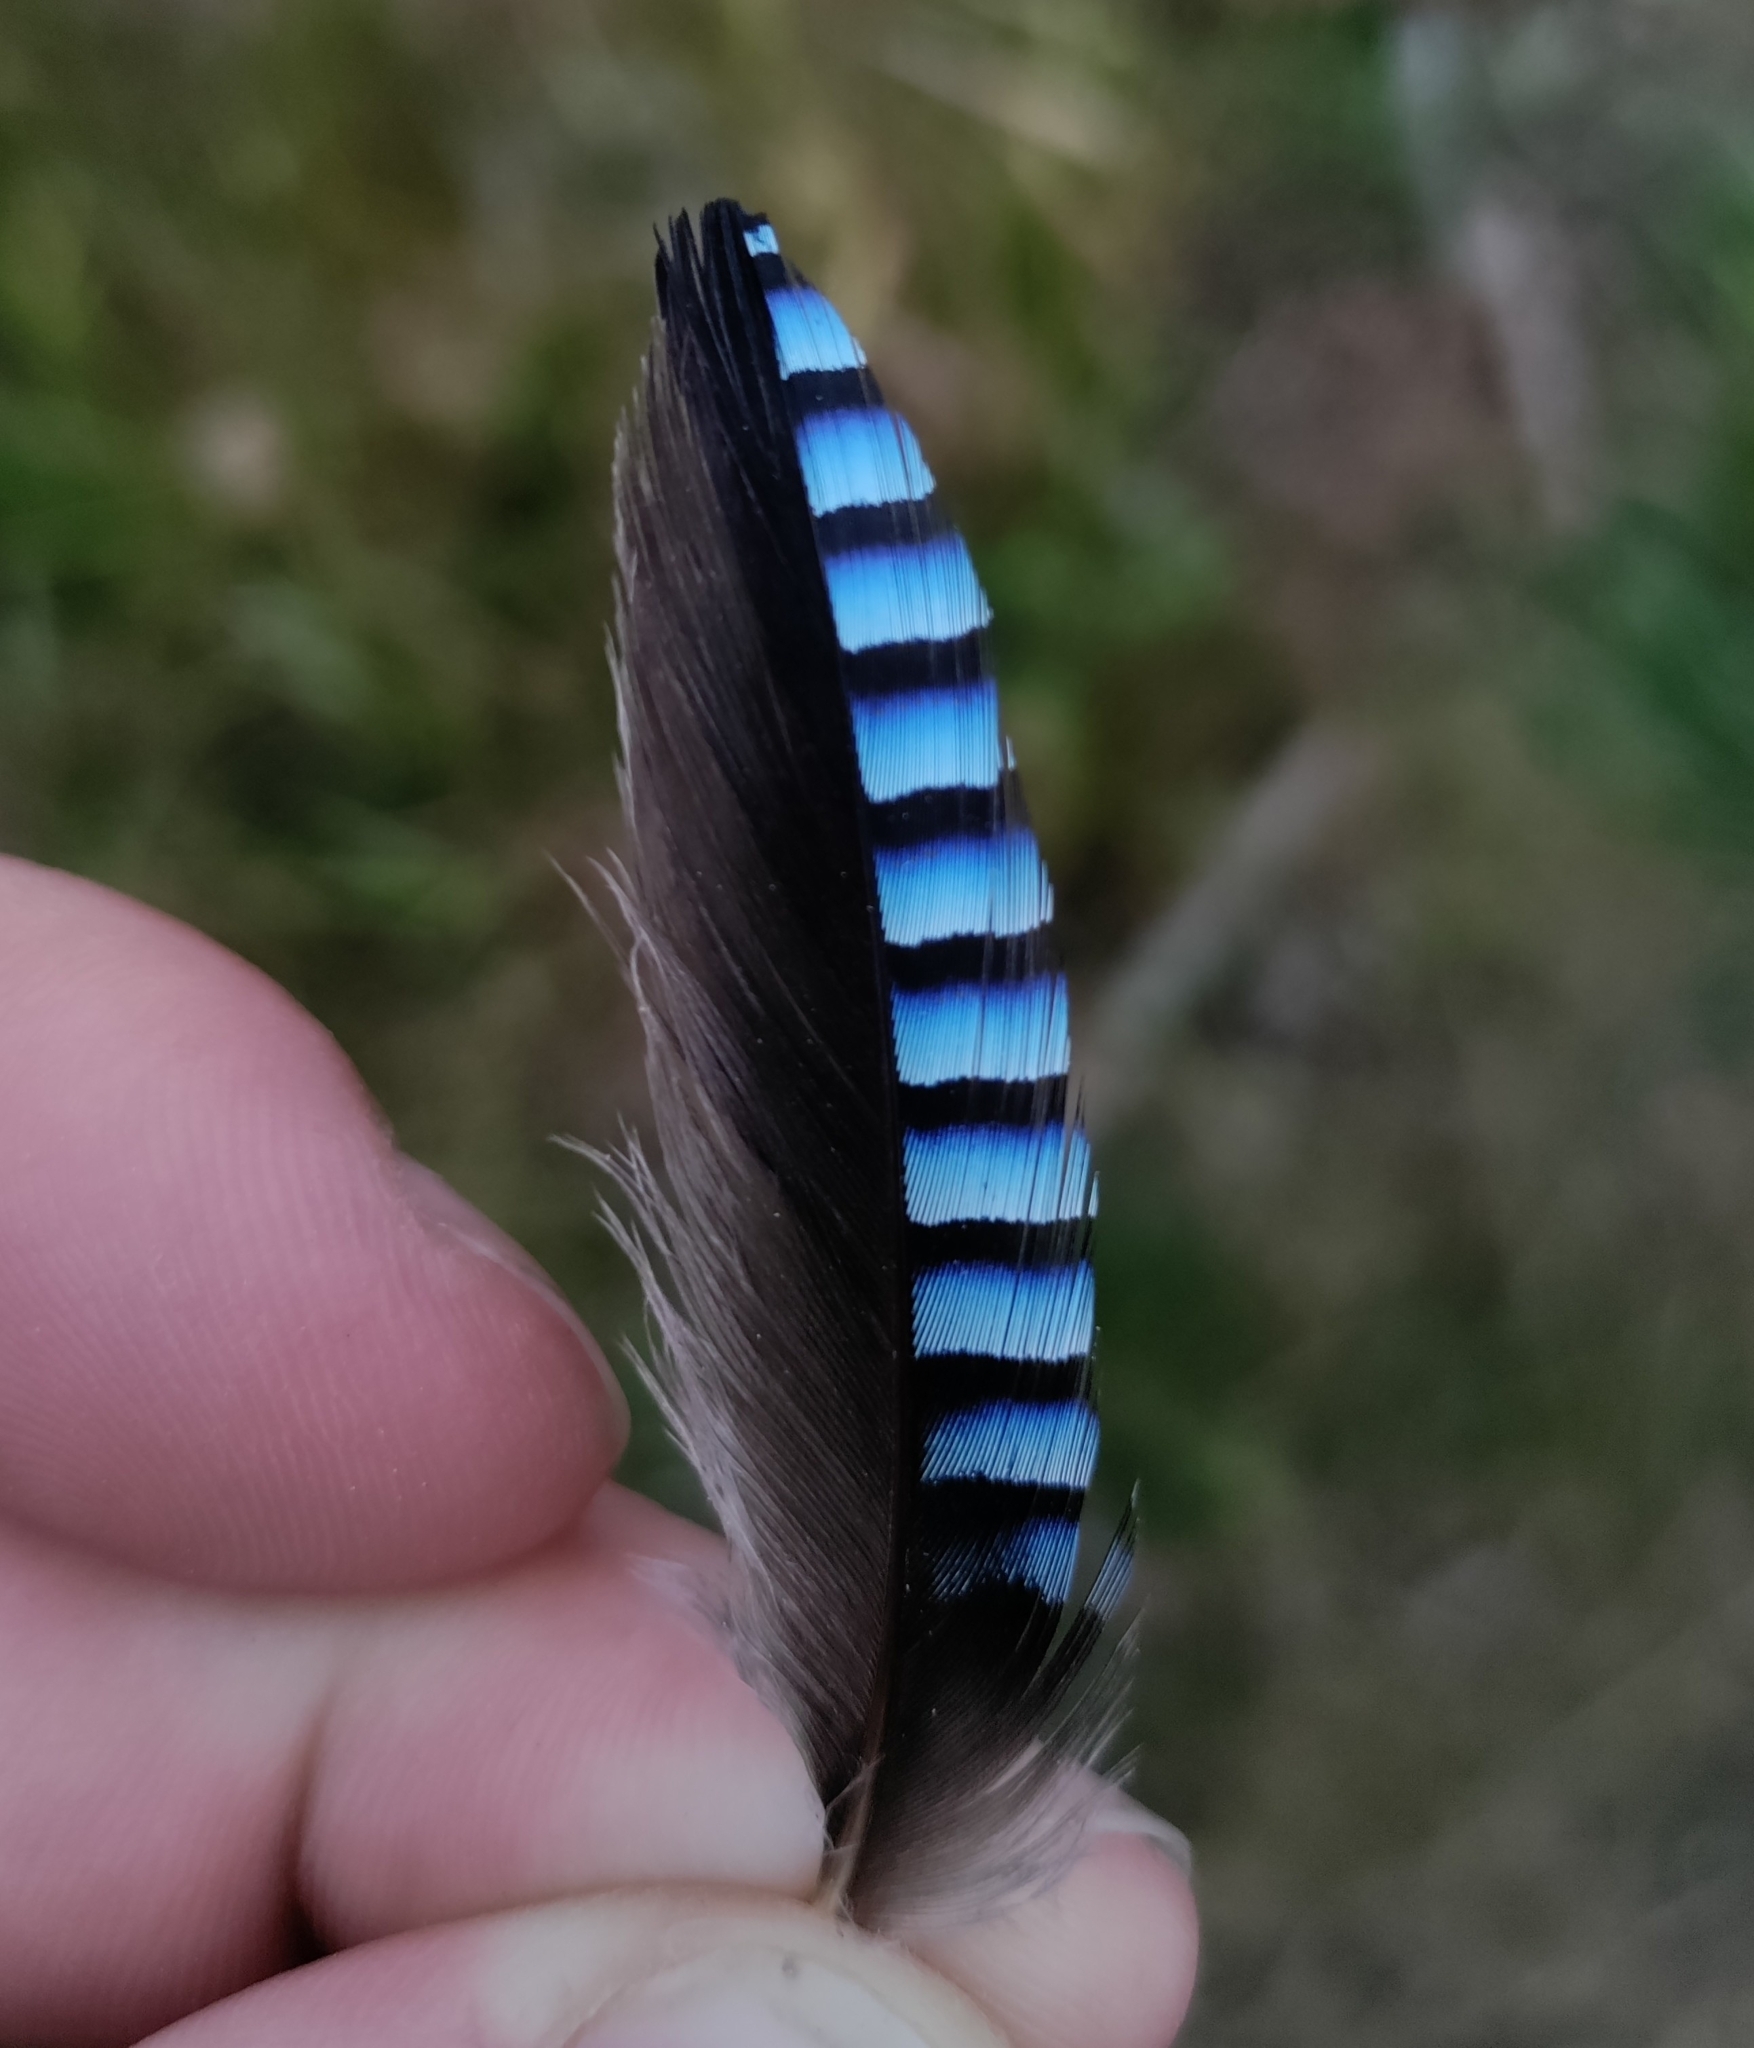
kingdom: Animalia
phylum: Chordata
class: Aves
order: Passeriformes
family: Corvidae
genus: Garrulus
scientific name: Garrulus glandarius
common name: Eurasian jay
